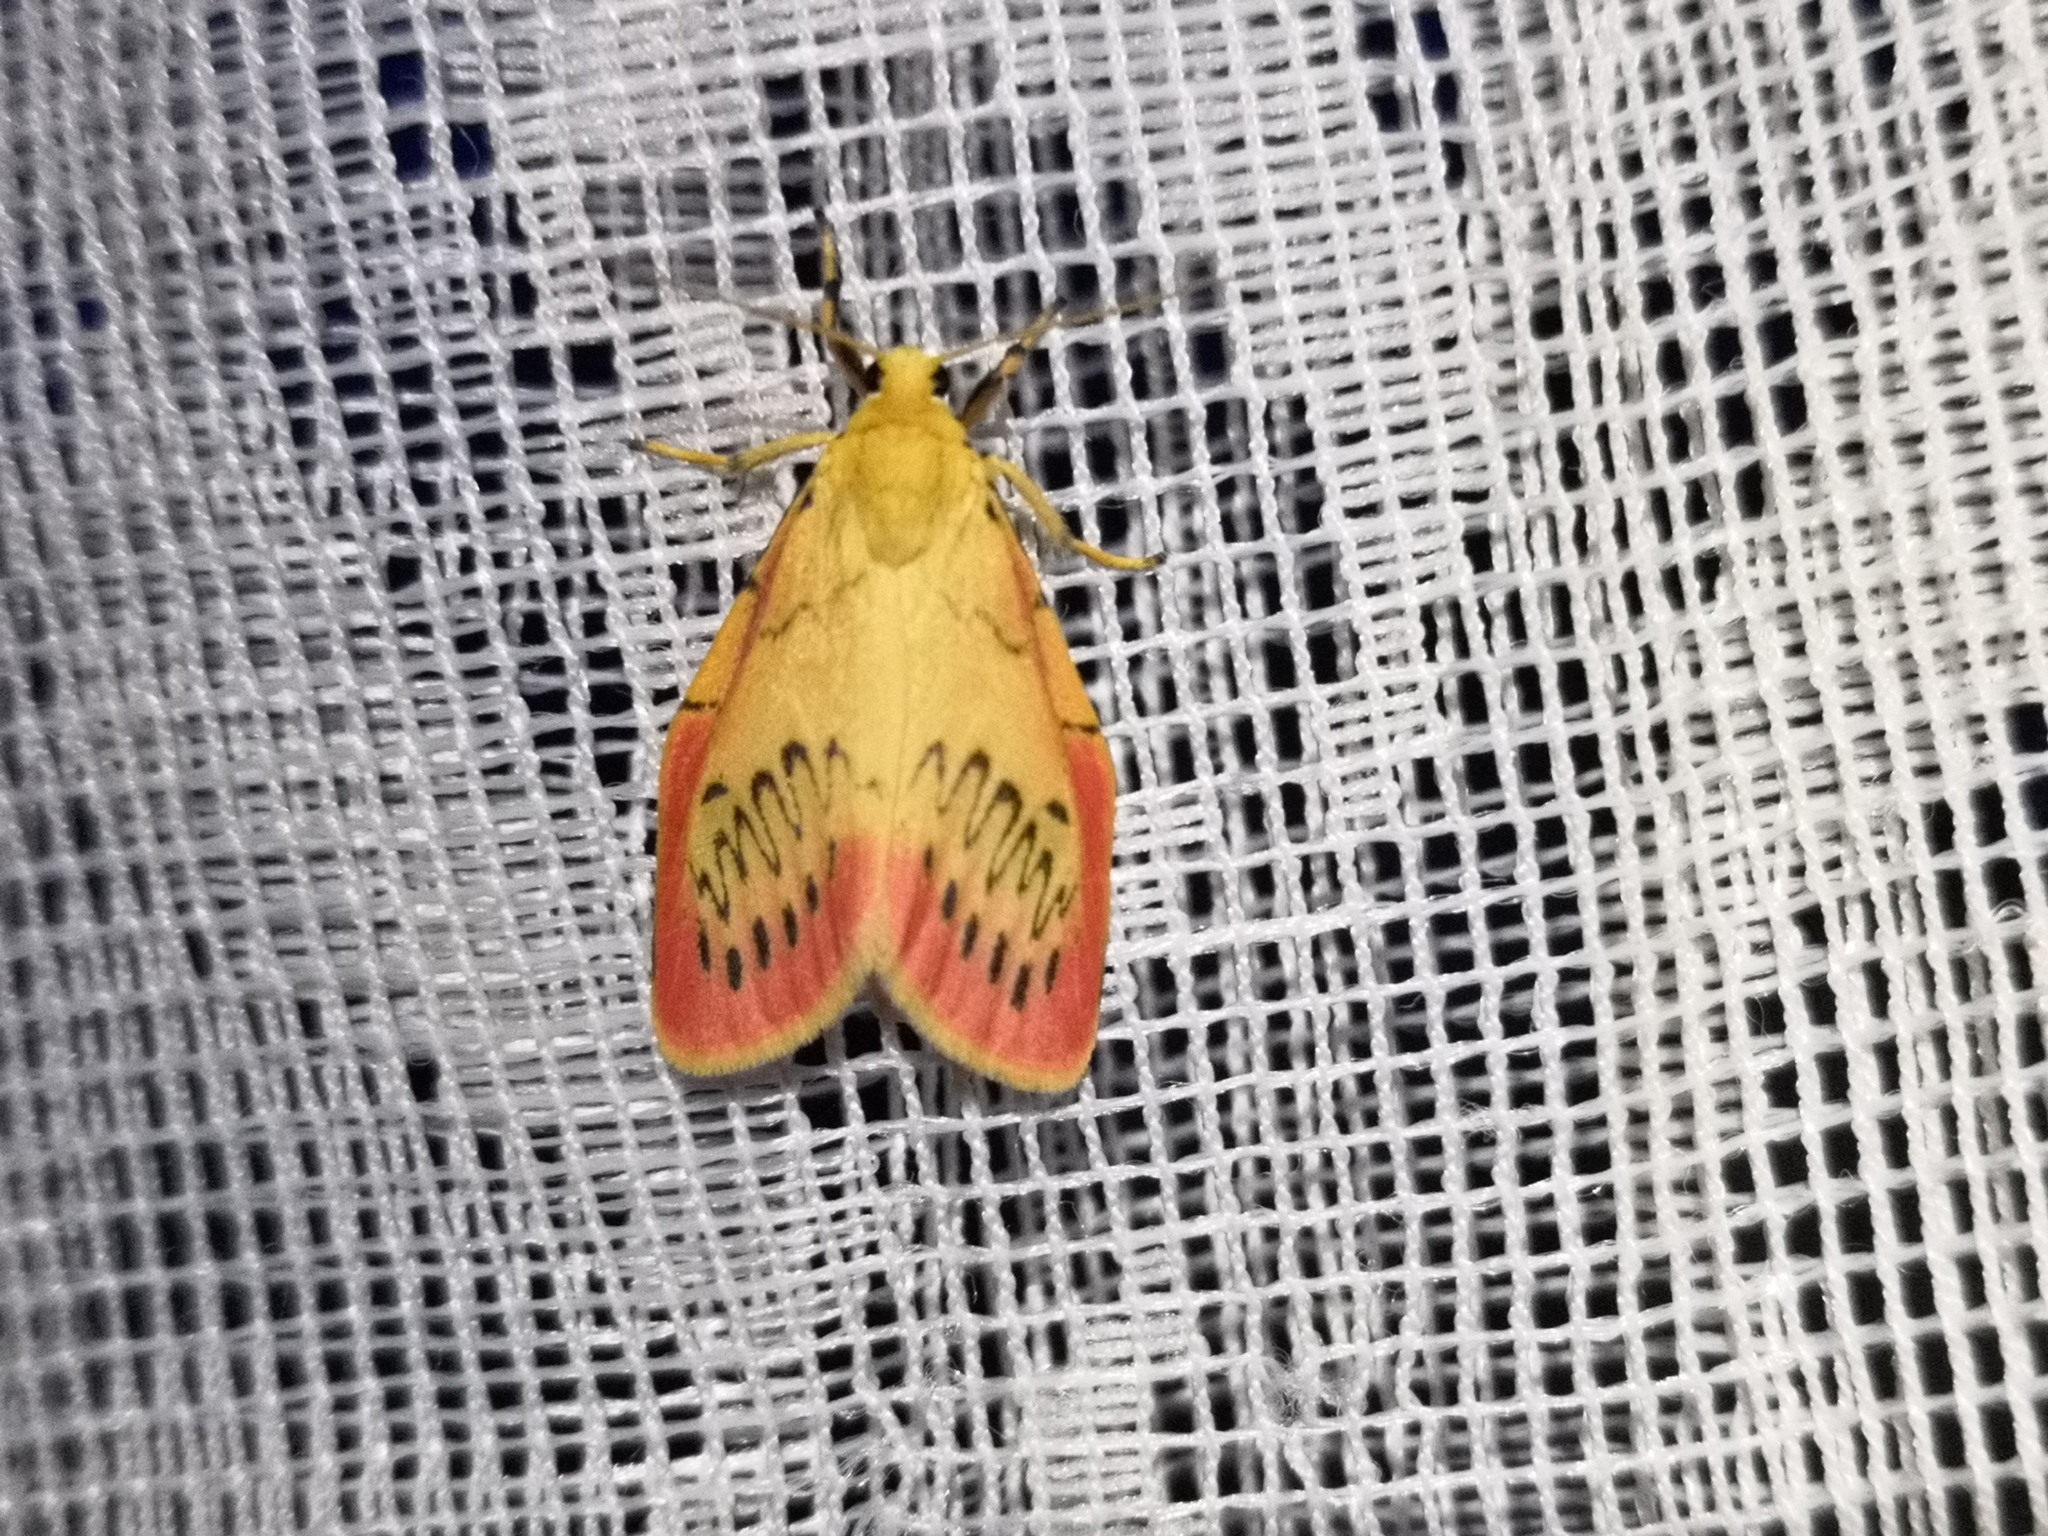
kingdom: Animalia
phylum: Arthropoda
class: Insecta
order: Lepidoptera
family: Erebidae
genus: Miltochrista
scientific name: Miltochrista miniata
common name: Rosy footman
